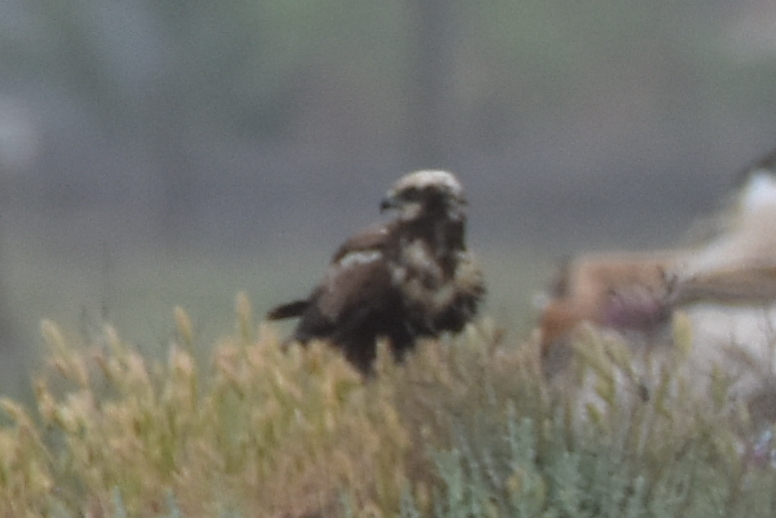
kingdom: Animalia
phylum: Chordata
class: Aves
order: Accipitriformes
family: Accipitridae
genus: Circus
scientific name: Circus aeruginosus
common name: Western marsh harrier
